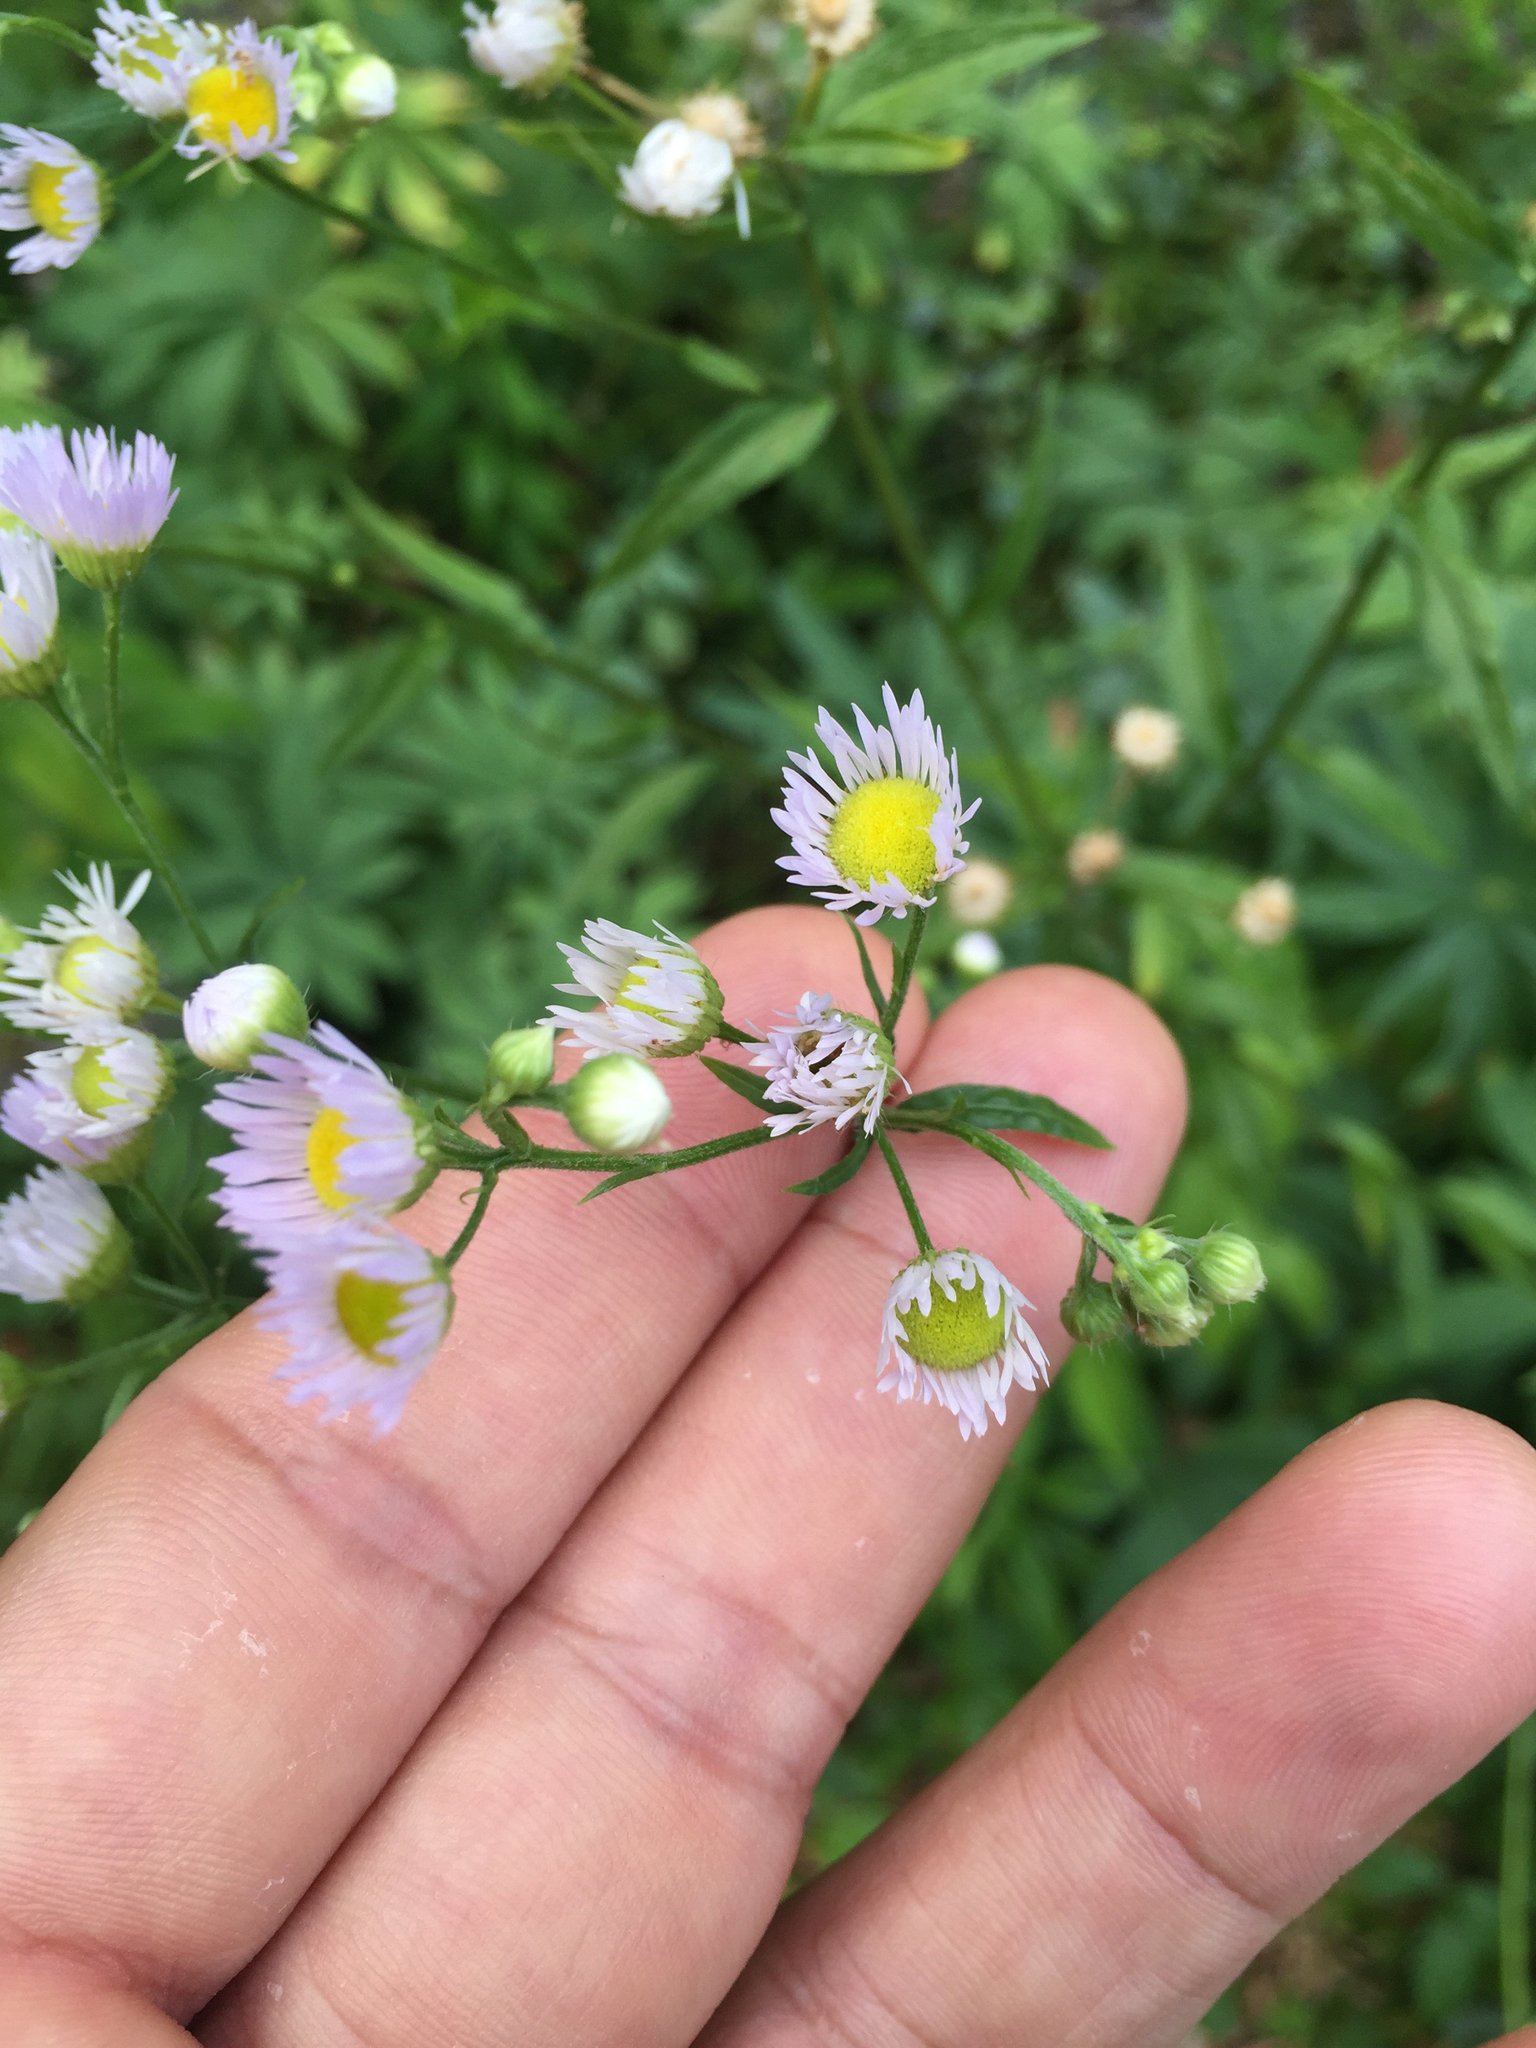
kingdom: Plantae
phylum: Tracheophyta
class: Magnoliopsida
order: Asterales
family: Asteraceae
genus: Erigeron
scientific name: Erigeron strigosus
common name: Common eastern fleabane
